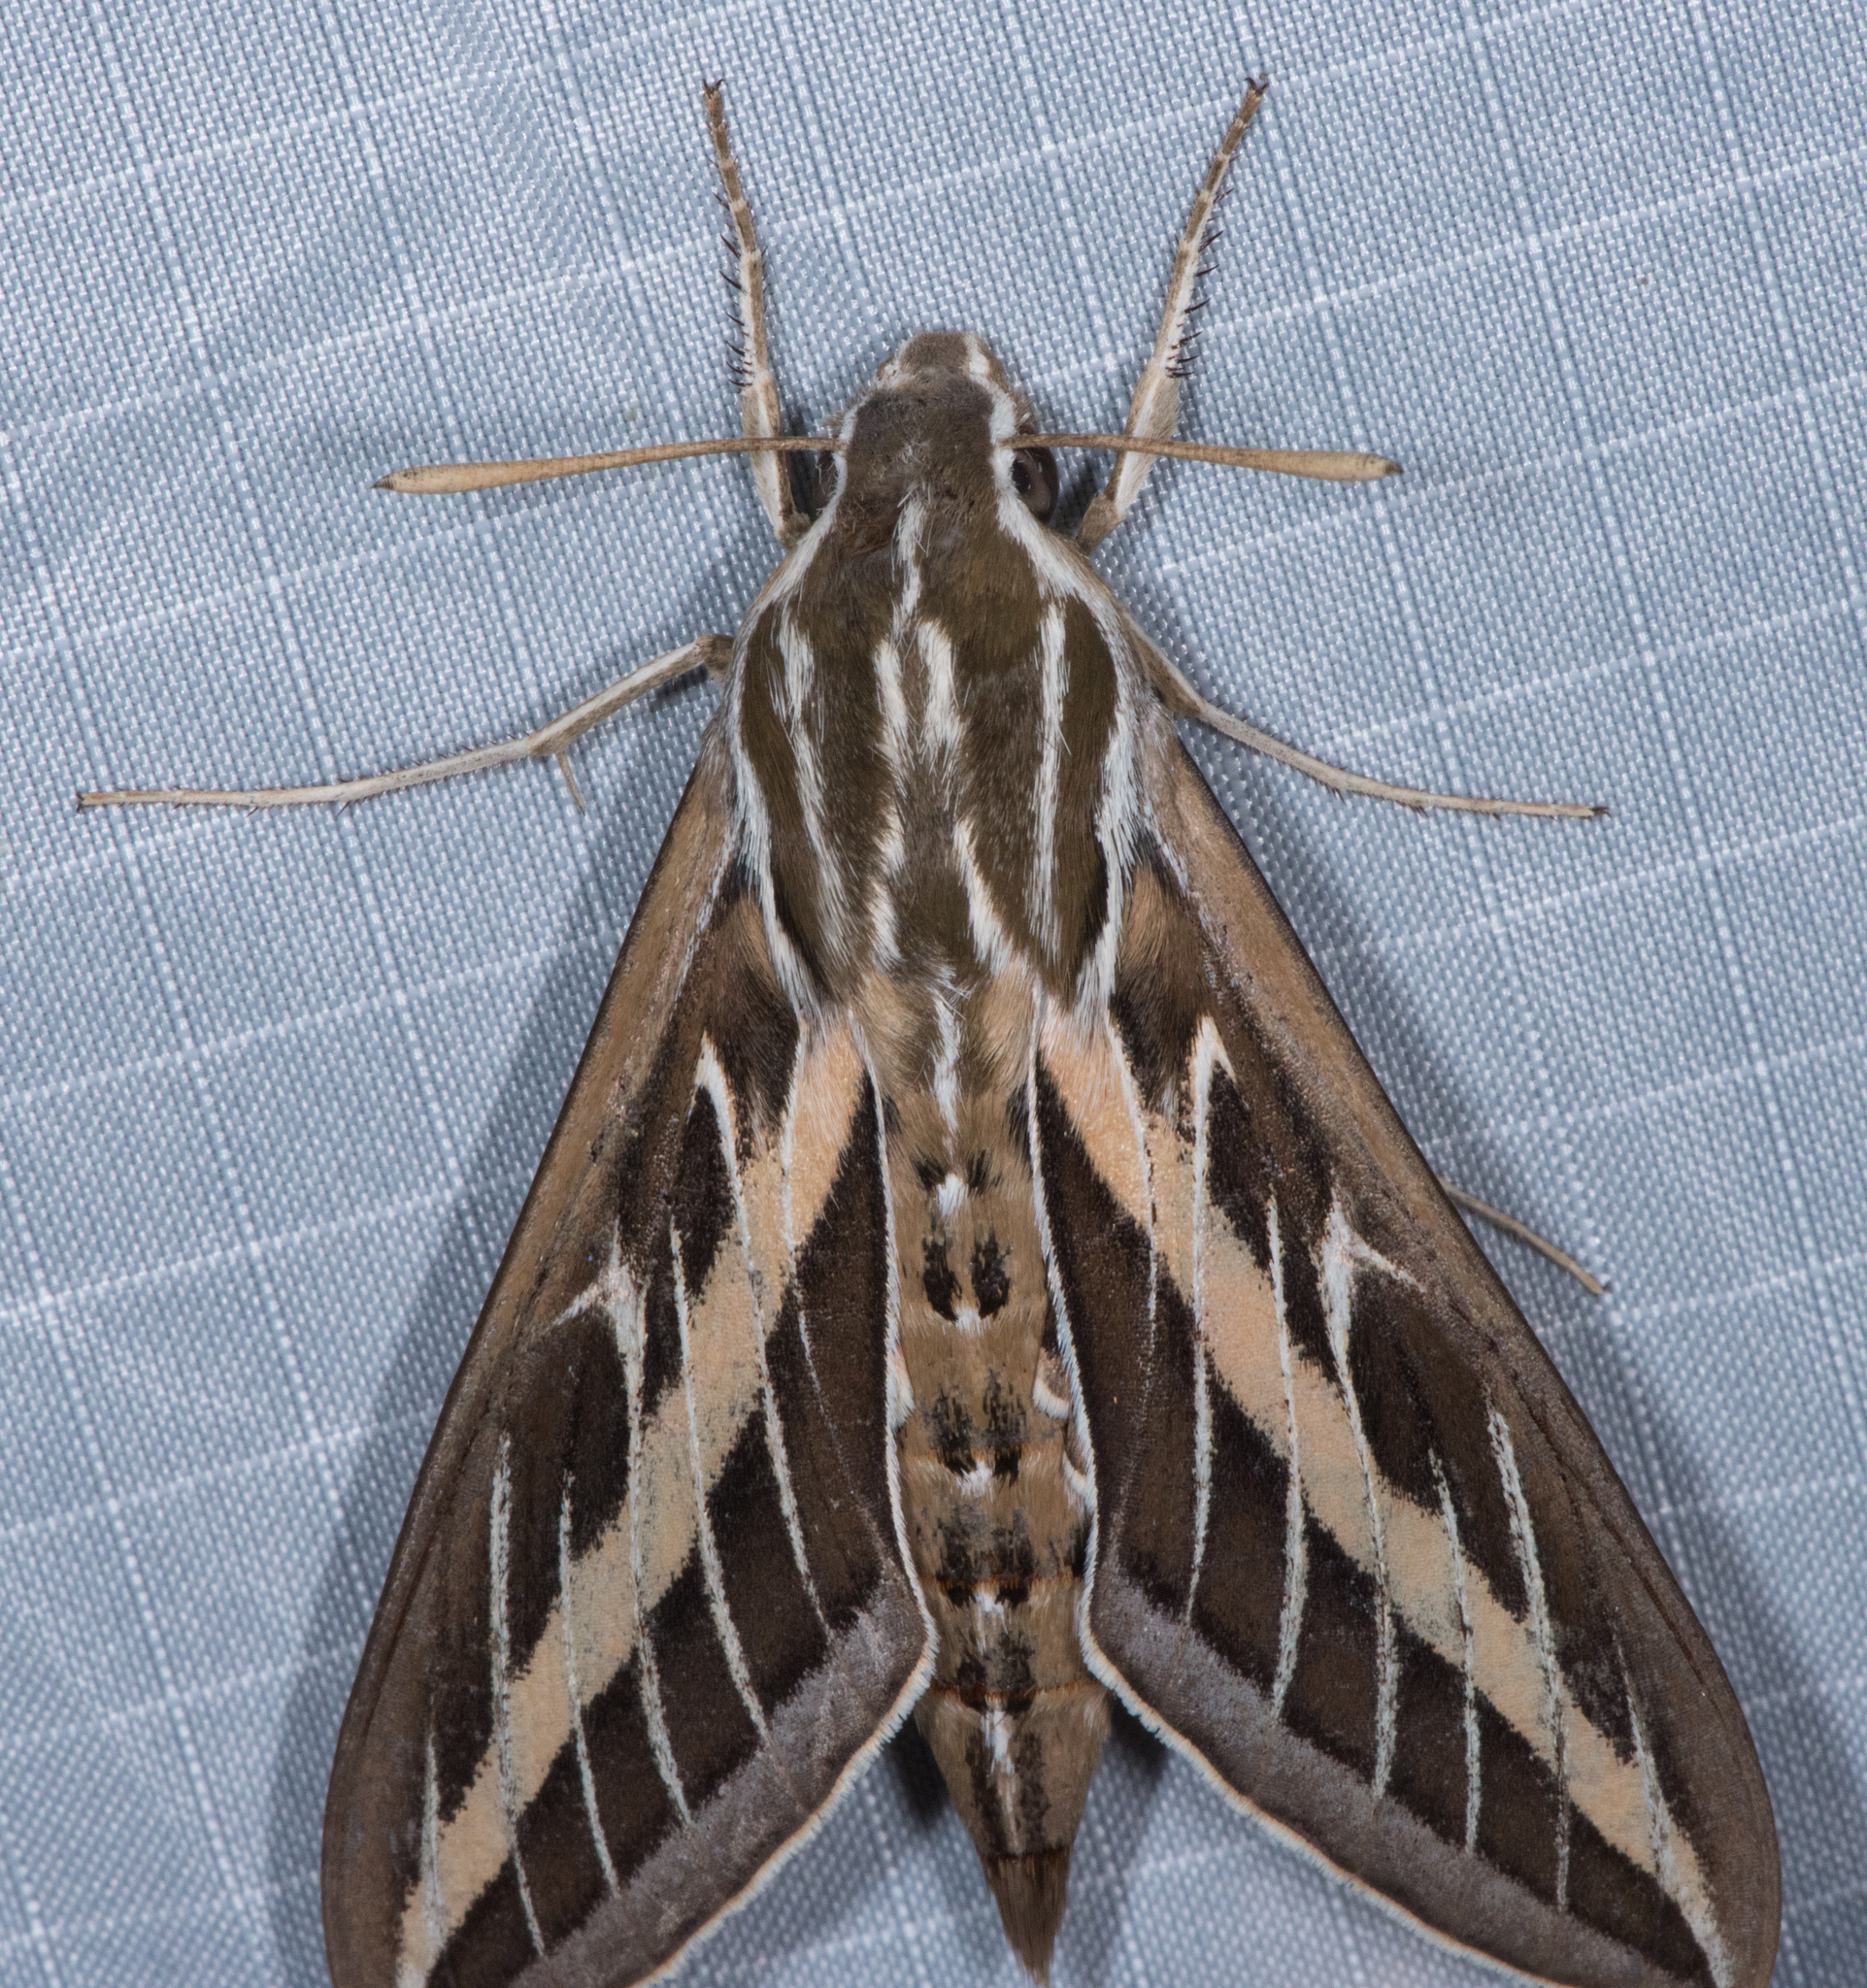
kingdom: Animalia
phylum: Arthropoda
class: Insecta
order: Lepidoptera
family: Sphingidae
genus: Hyles
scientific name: Hyles lineata
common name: White-lined sphinx
